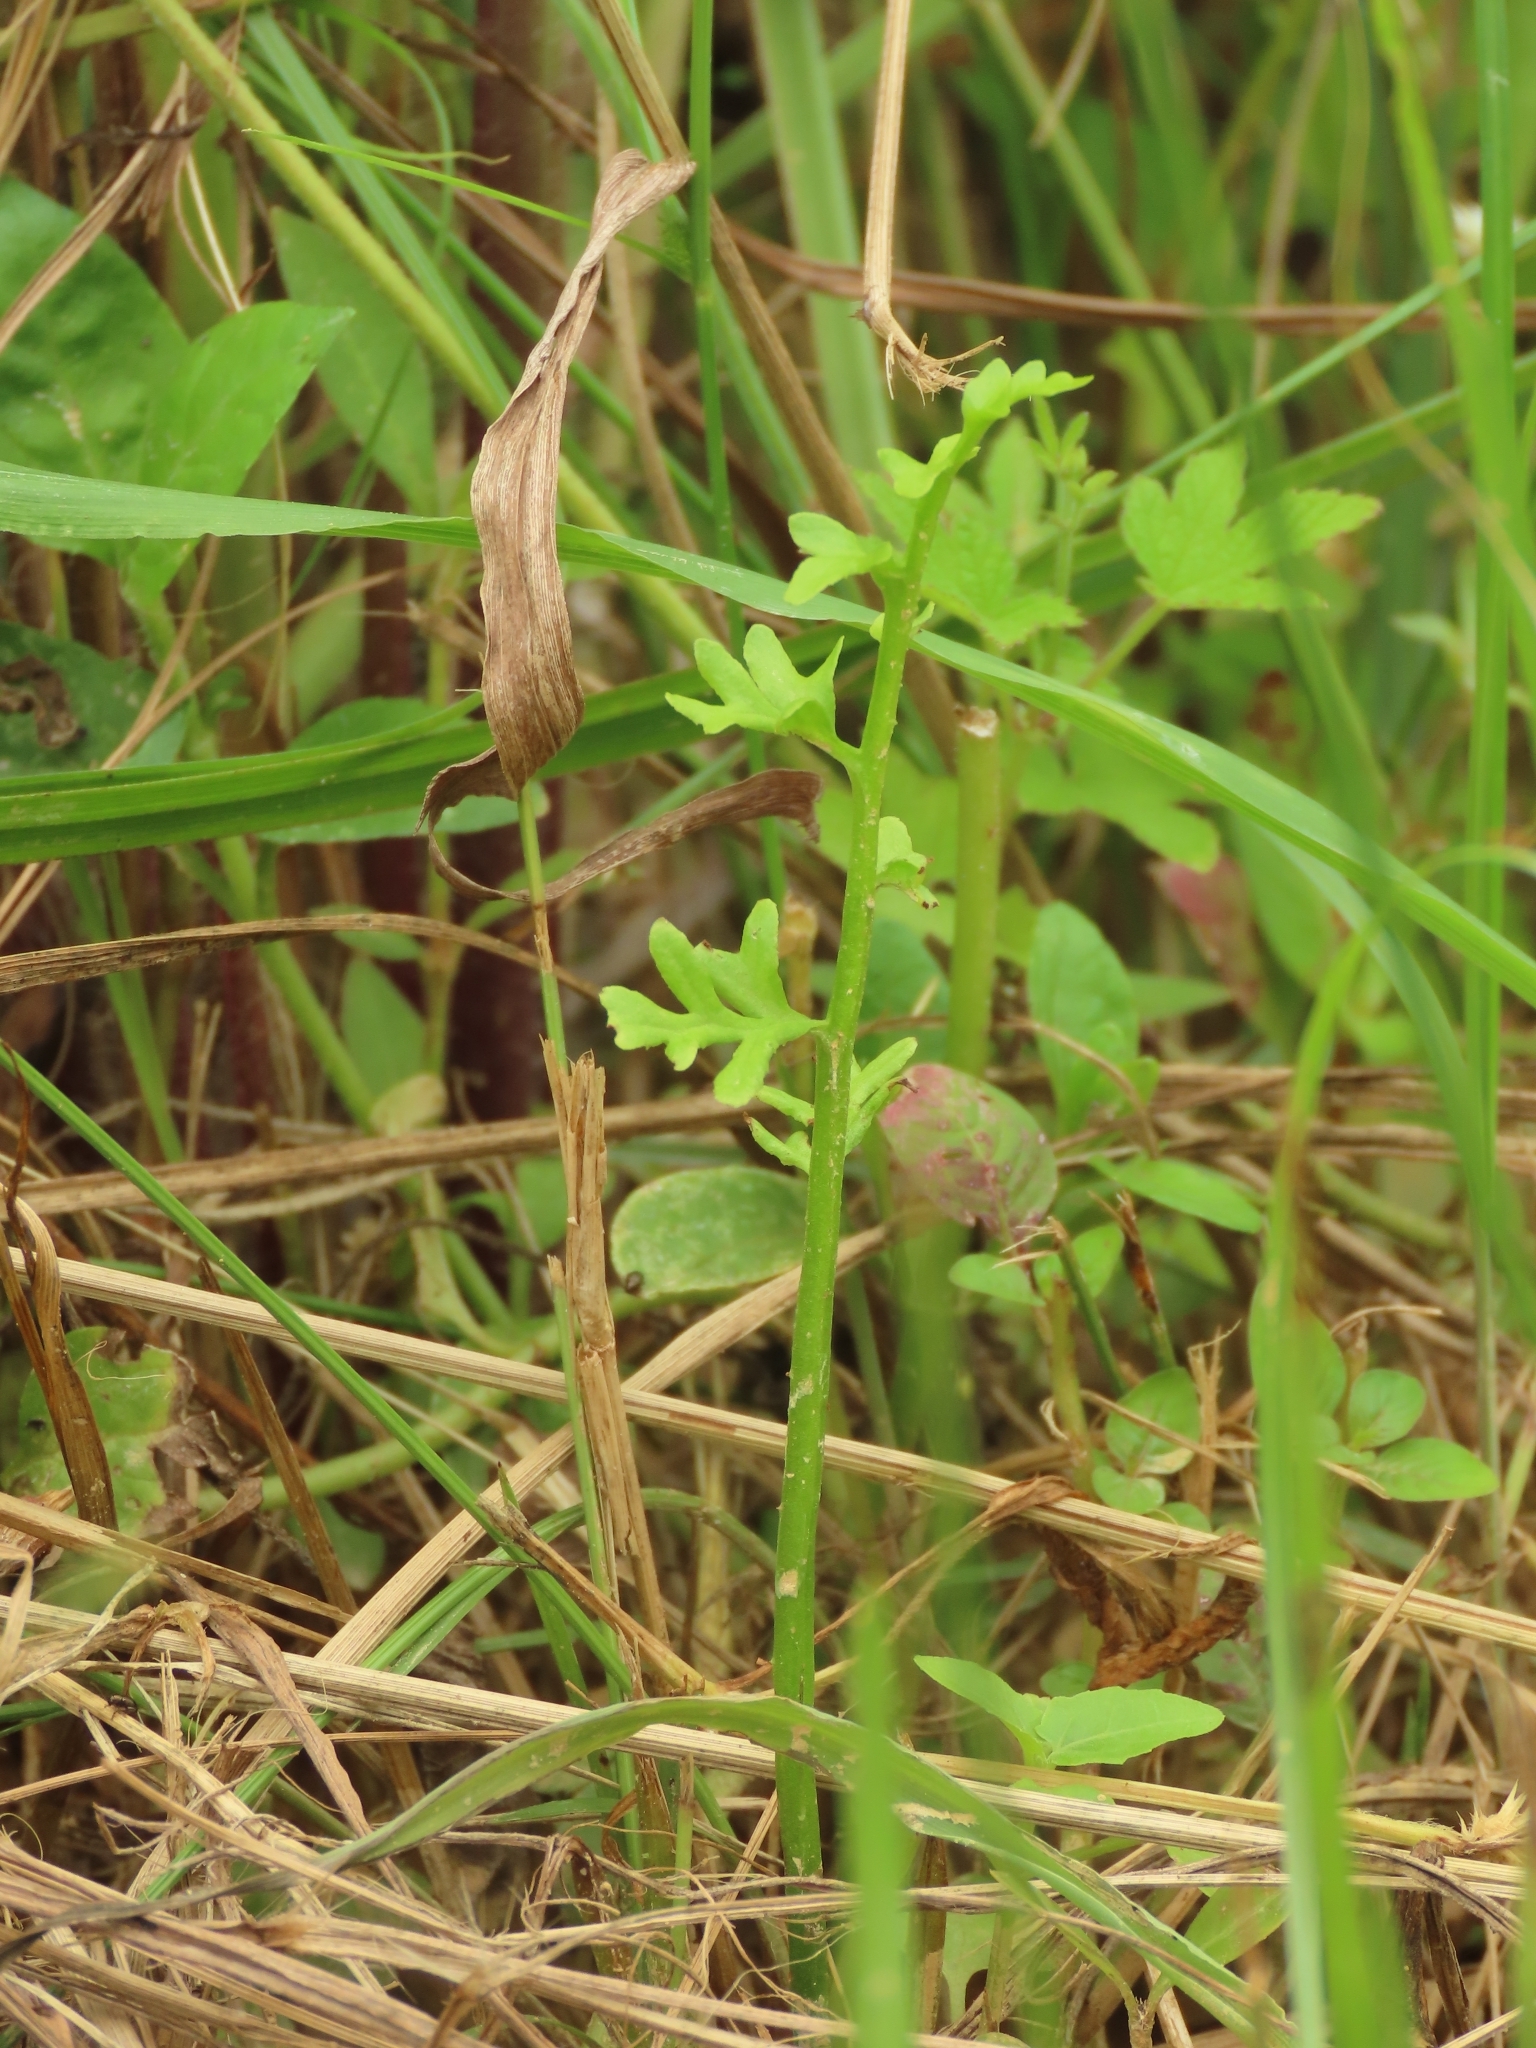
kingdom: Plantae
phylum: Tracheophyta
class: Polypodiopsida
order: Polypodiales
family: Pteridaceae
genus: Ceratopteris
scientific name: Ceratopteris thalictroides
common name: Water fern
